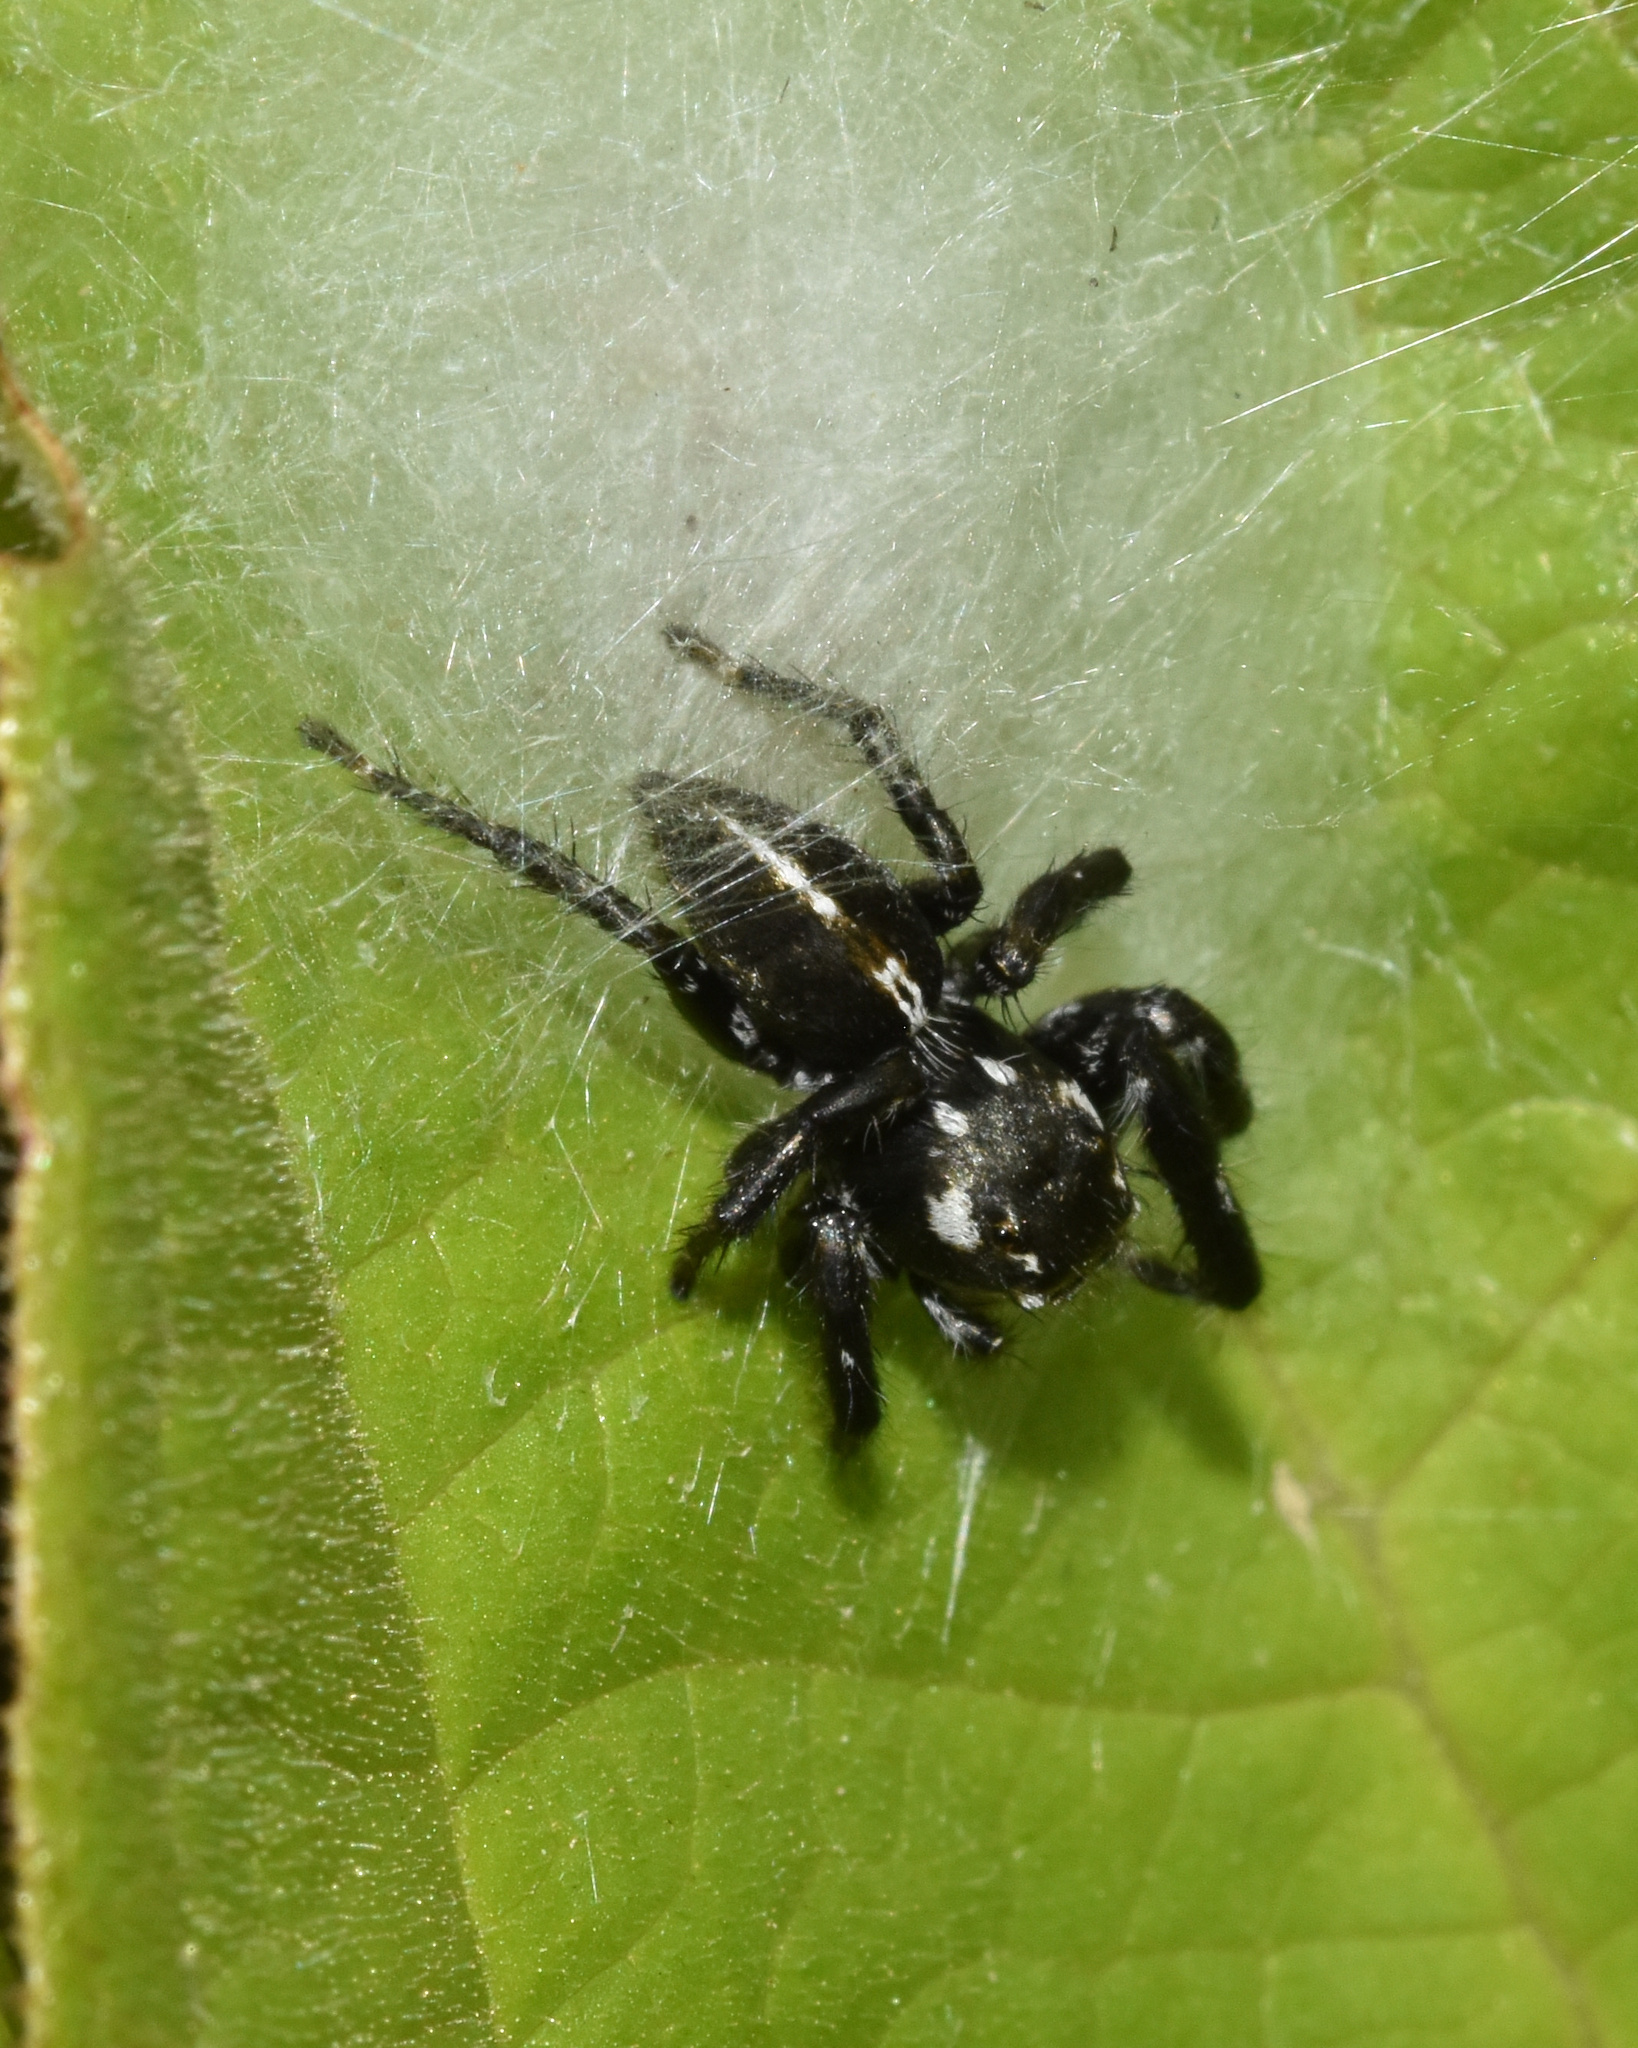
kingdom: Animalia
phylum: Arthropoda
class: Arachnida
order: Araneae
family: Salticidae
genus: Hyllus
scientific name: Hyllus argyrotoxus
